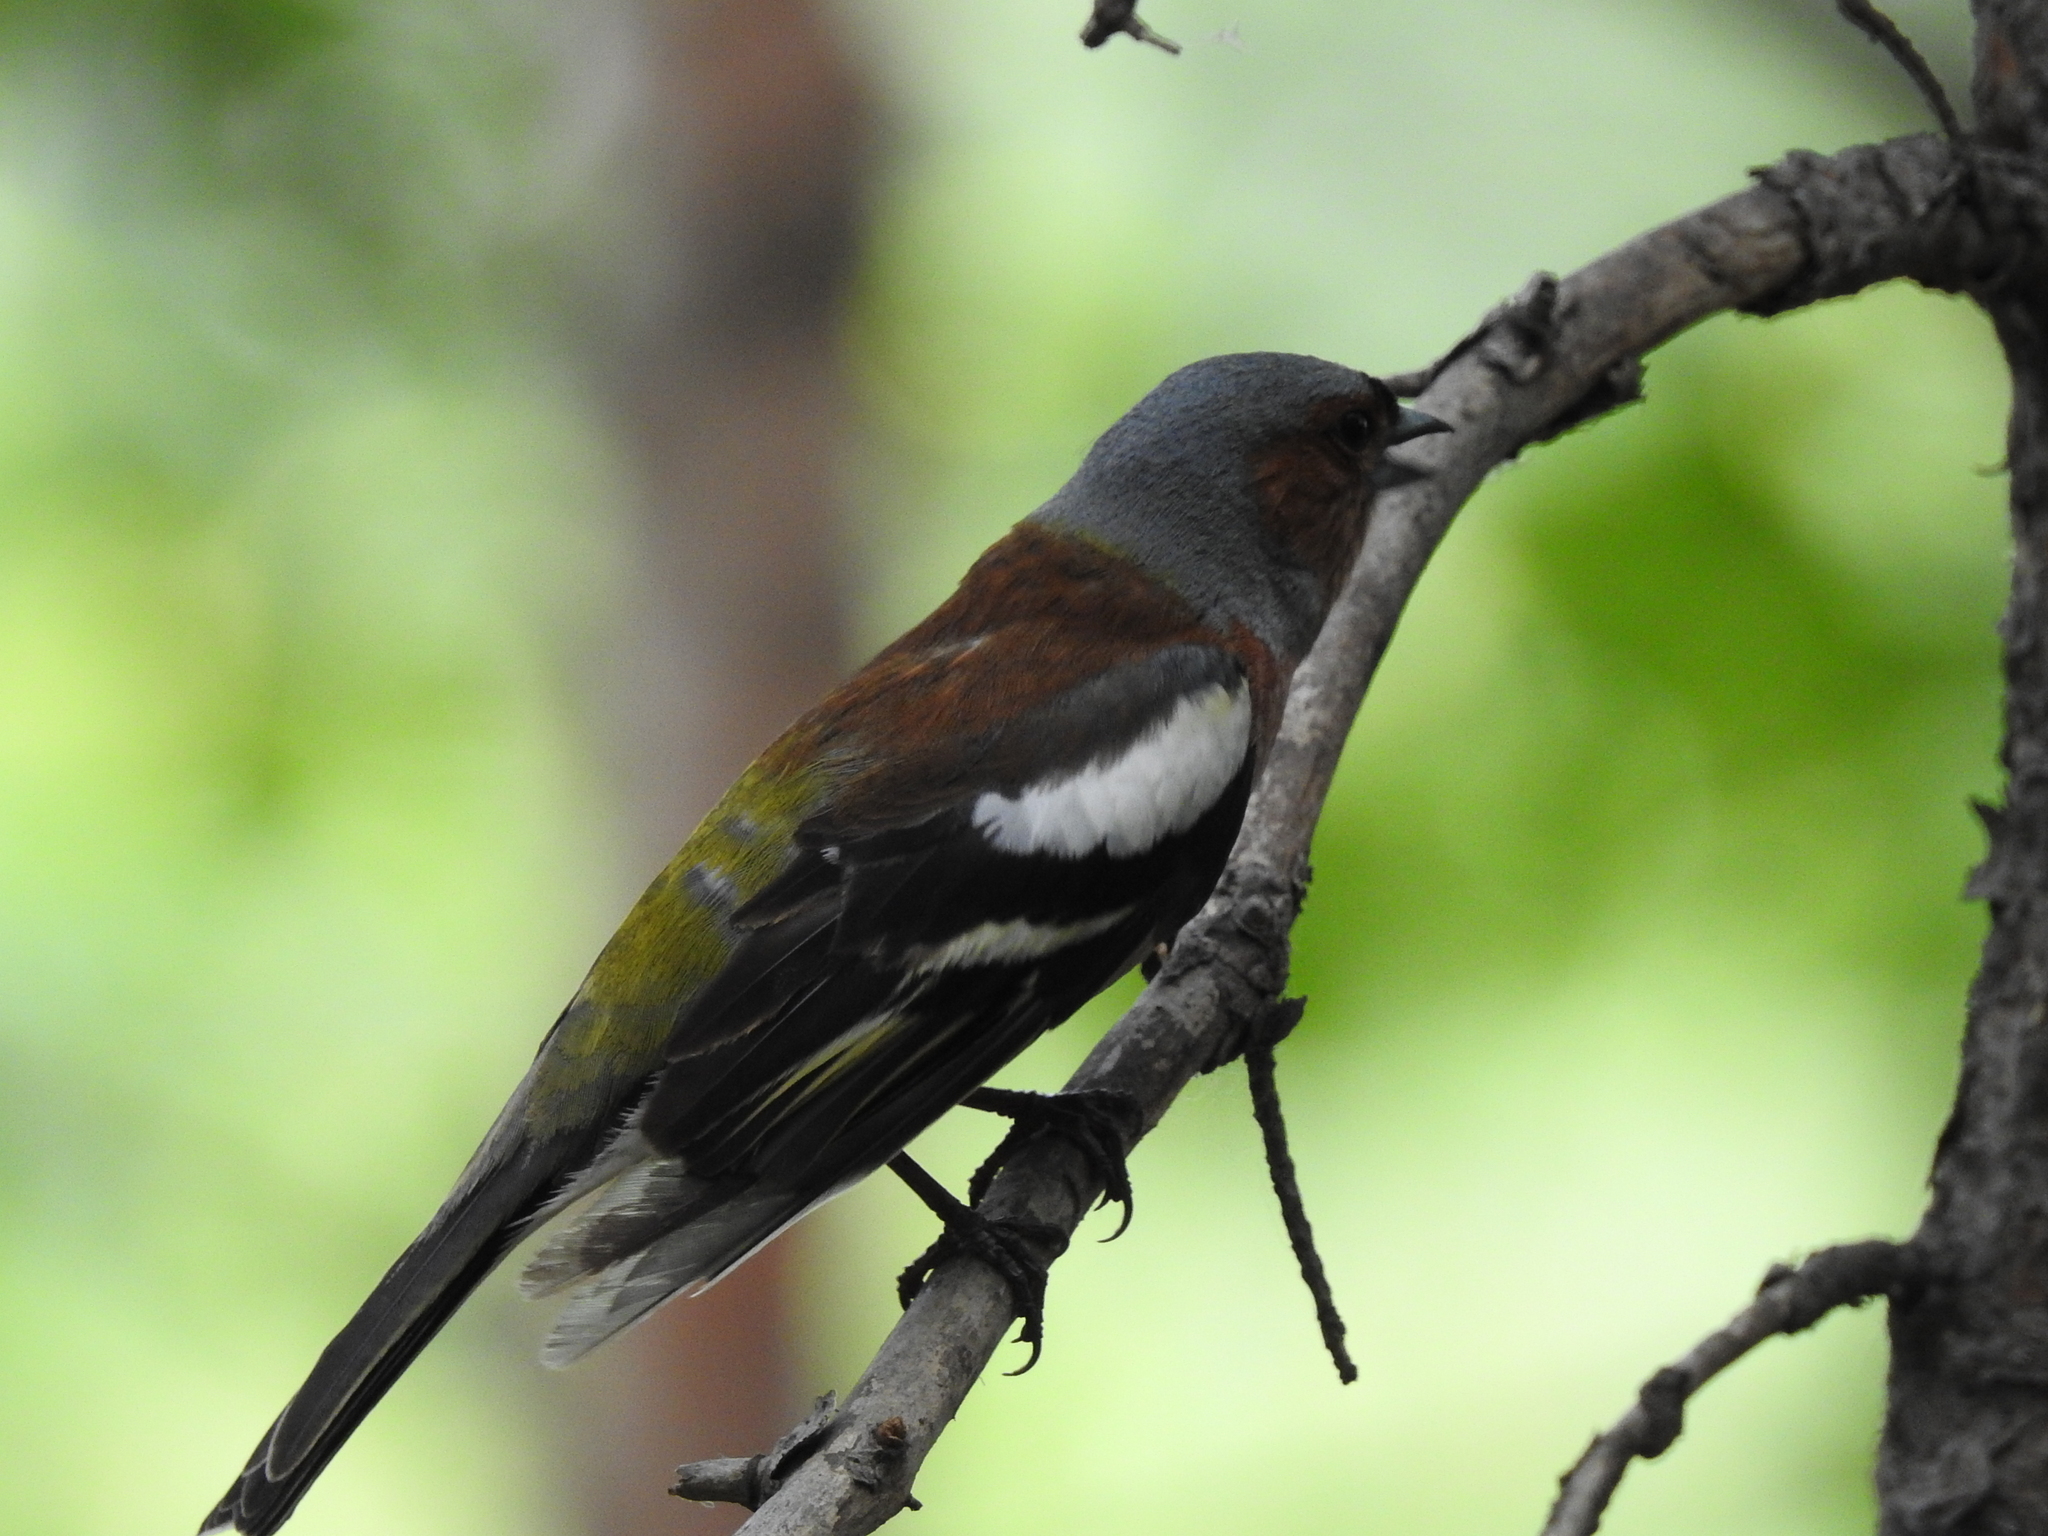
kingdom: Animalia
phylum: Chordata
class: Aves
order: Passeriformes
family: Fringillidae
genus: Fringilla
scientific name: Fringilla coelebs
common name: Common chaffinch
